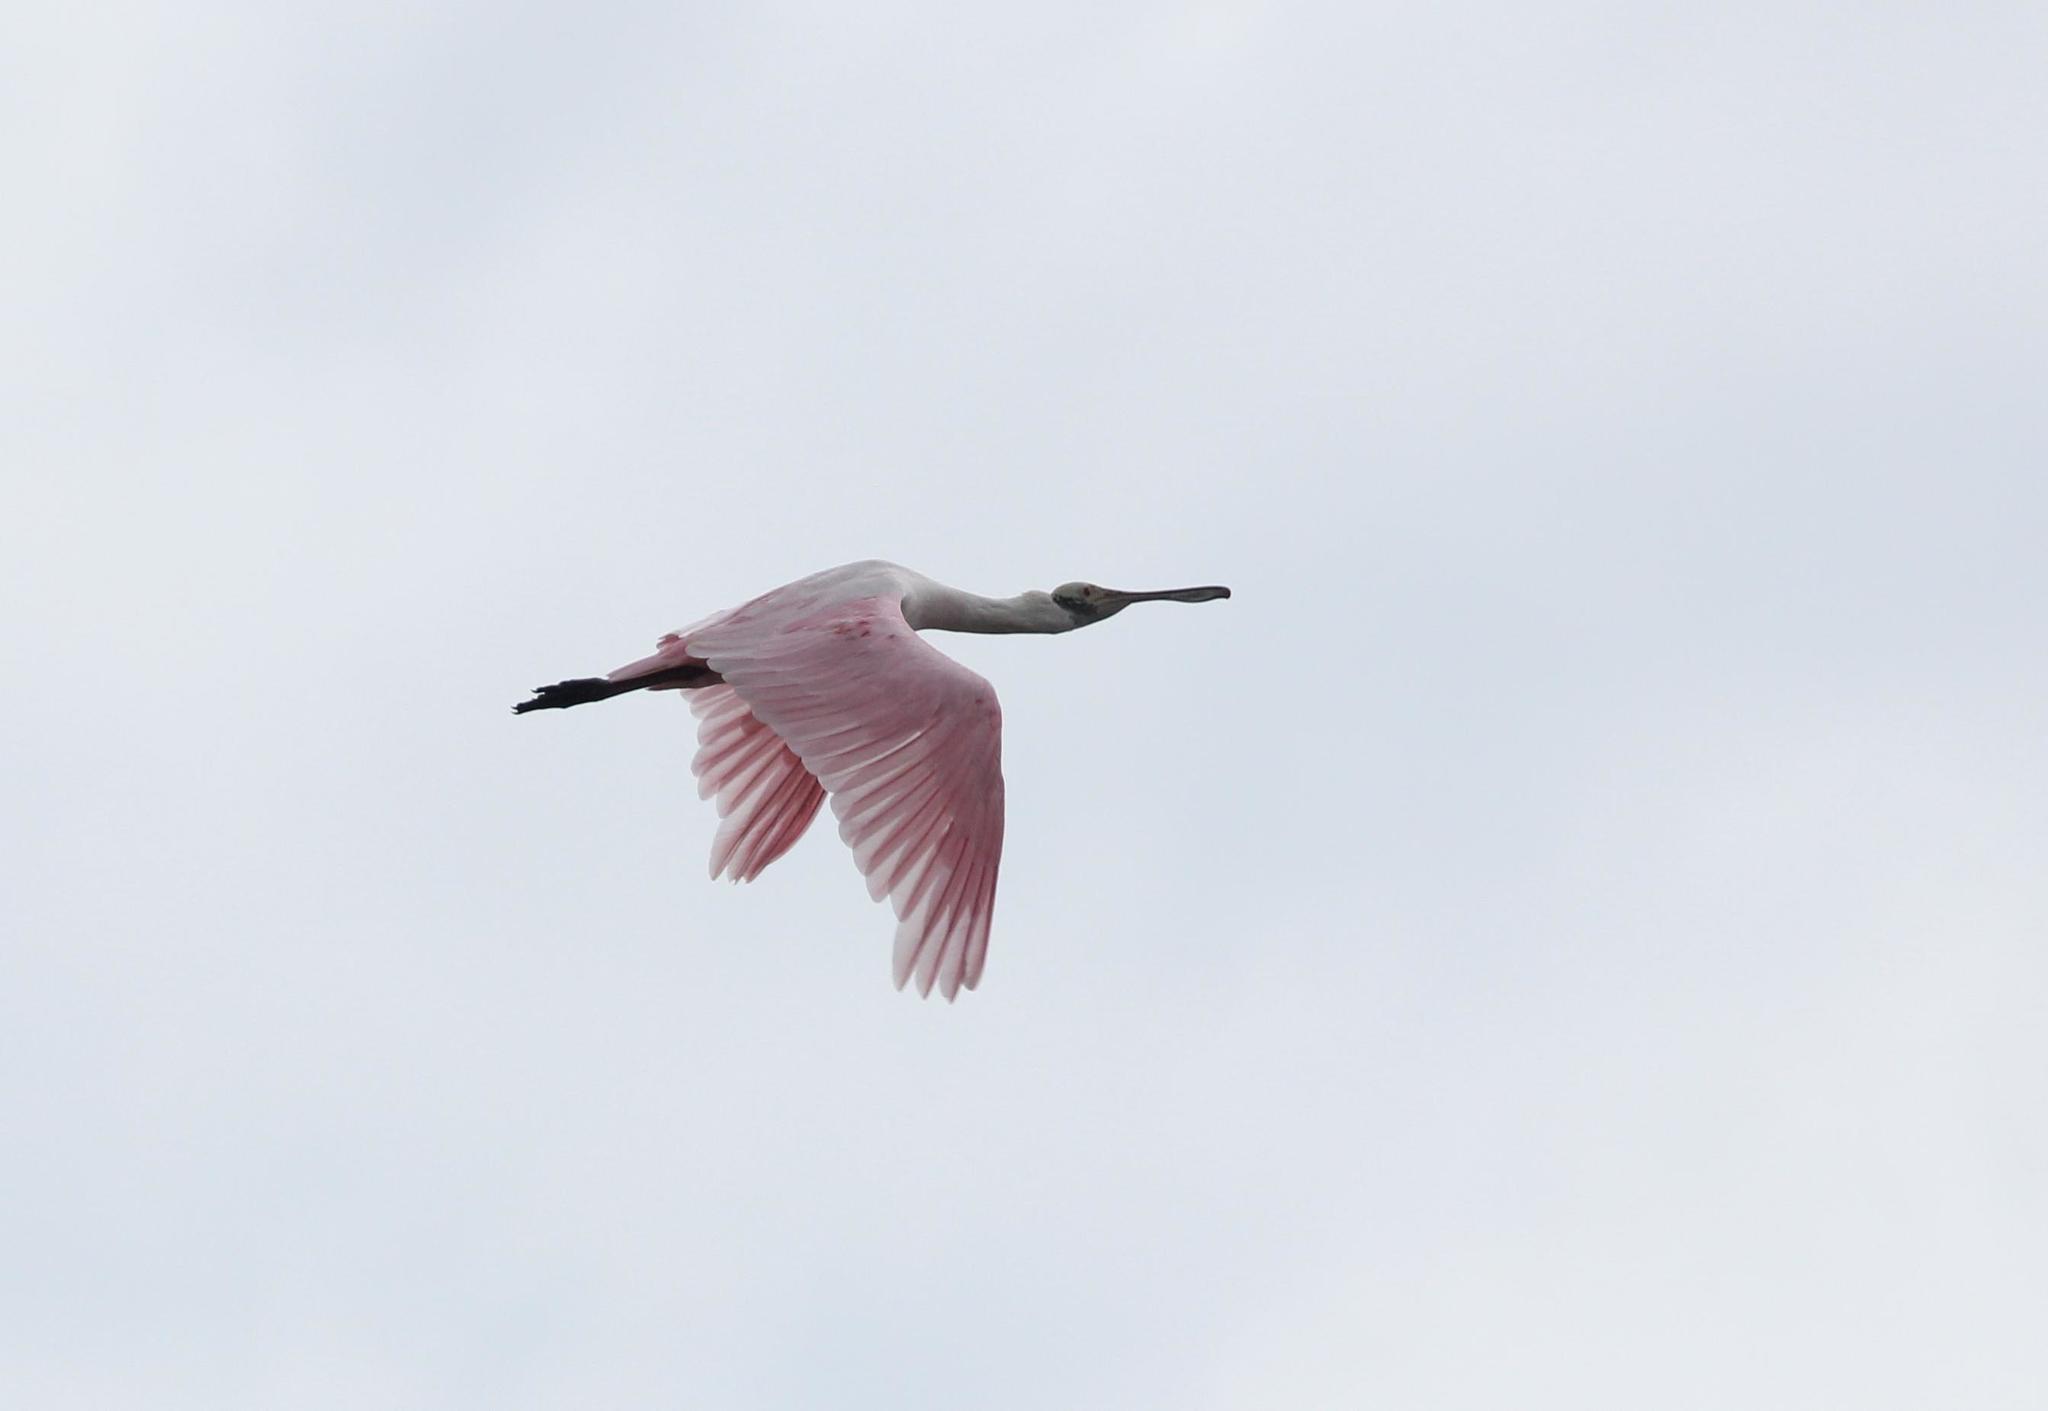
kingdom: Animalia
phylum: Chordata
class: Aves
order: Pelecaniformes
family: Threskiornithidae
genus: Platalea
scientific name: Platalea ajaja
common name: Roseate spoonbill
